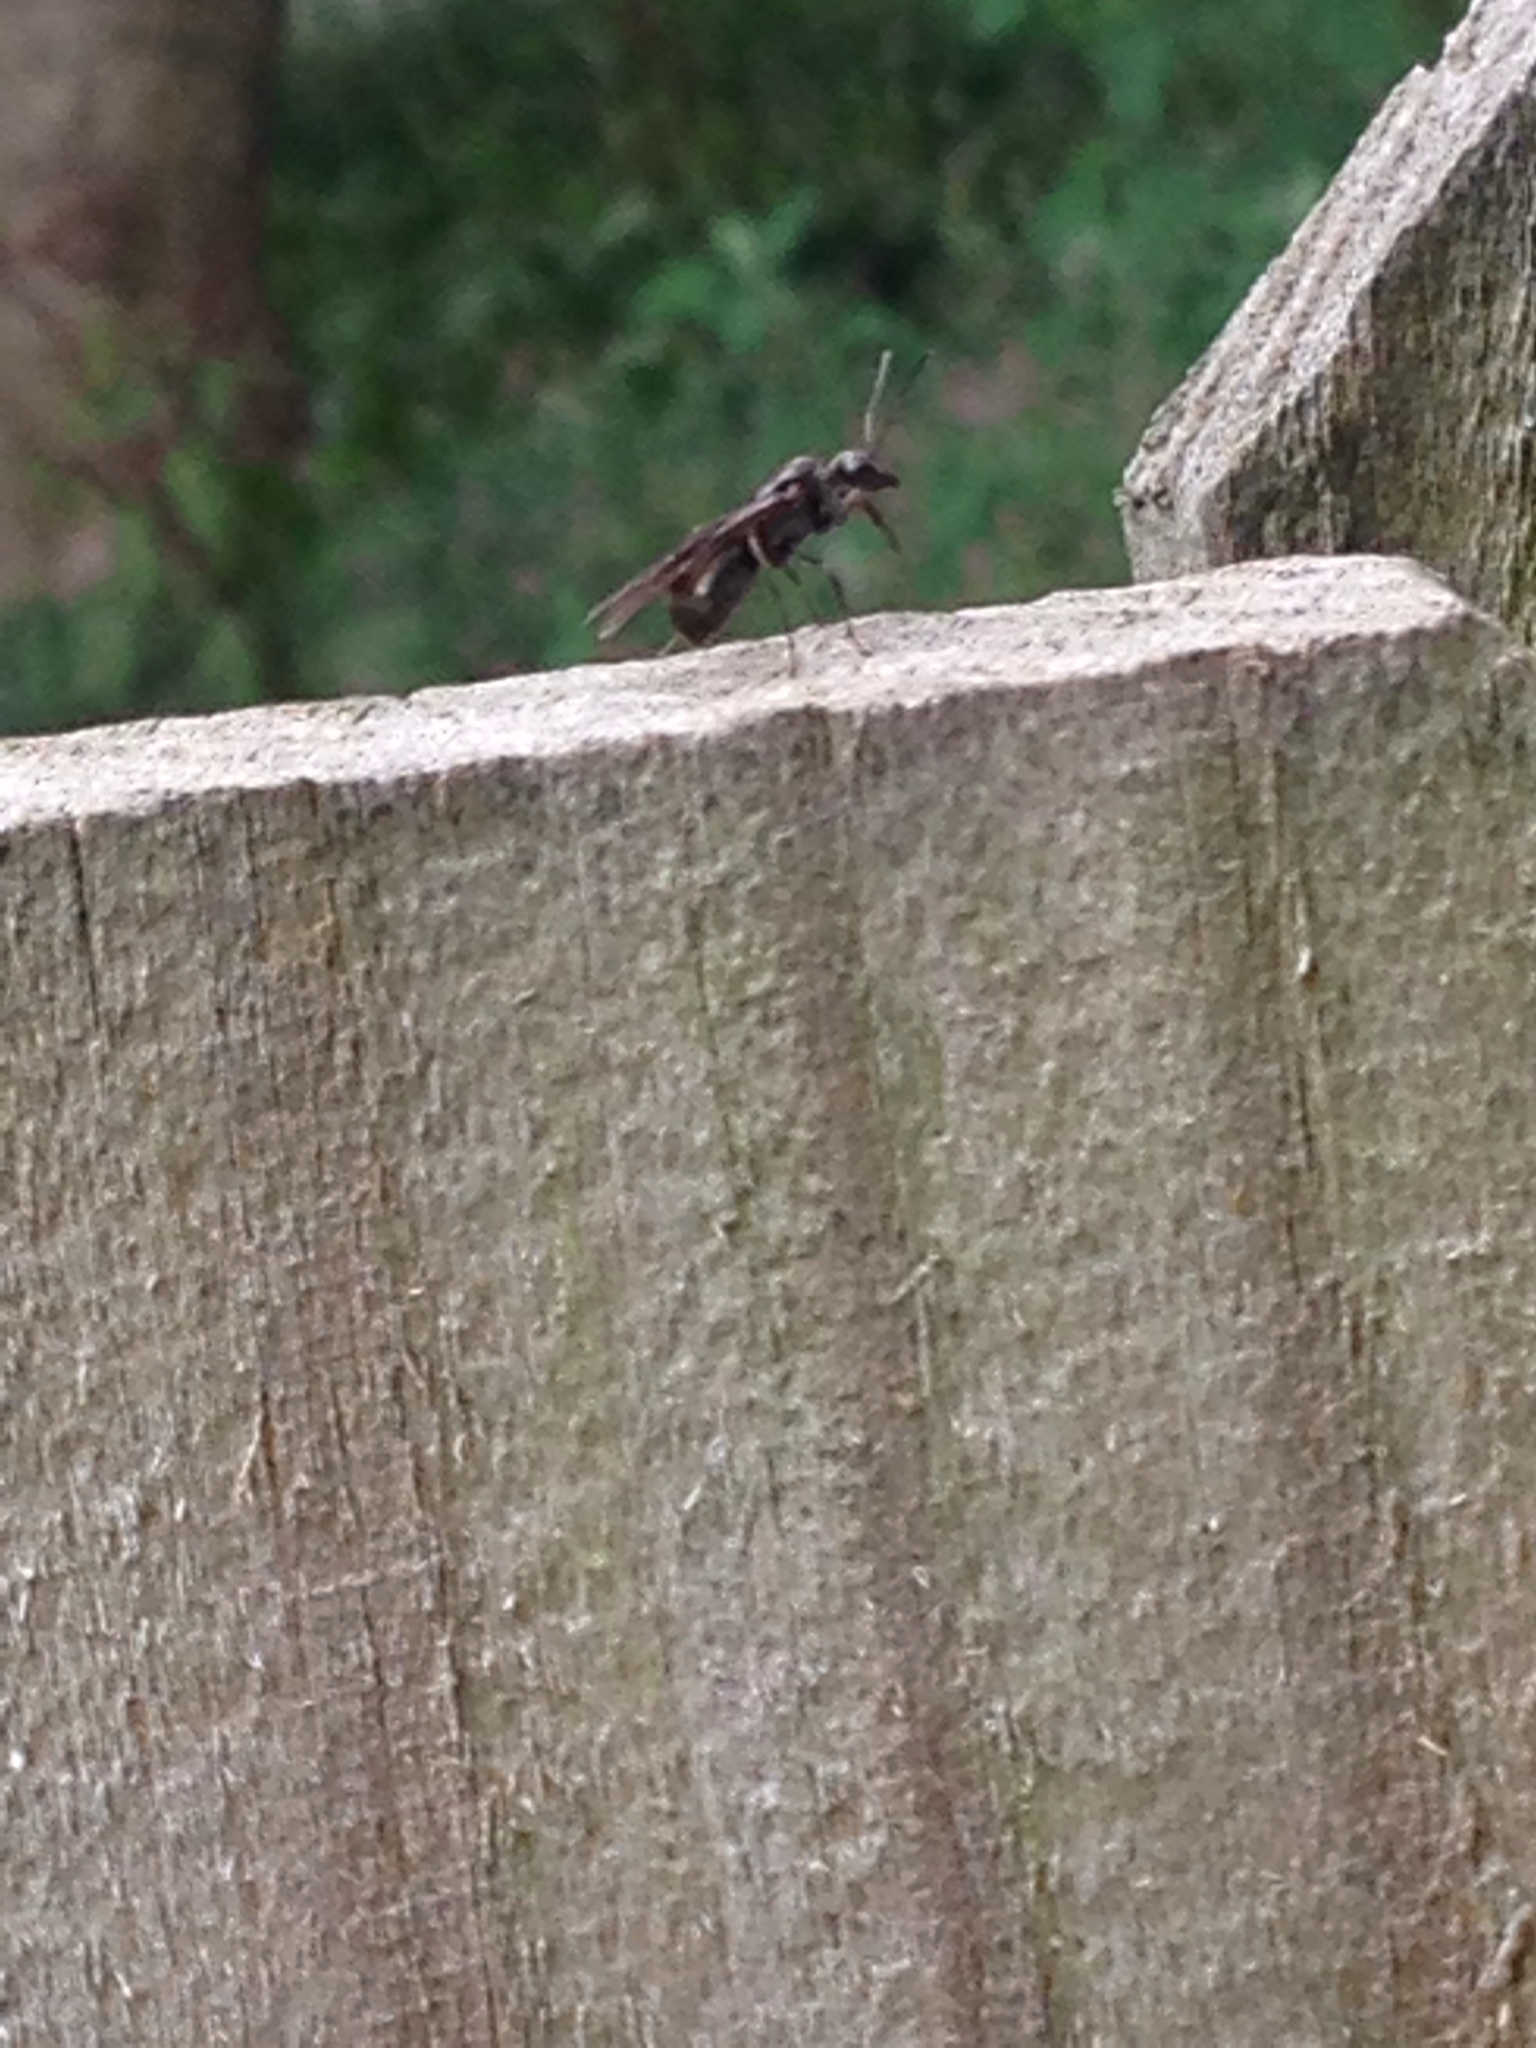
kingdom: Animalia
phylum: Arthropoda
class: Insecta
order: Hymenoptera
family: Formicidae
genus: Camponotus
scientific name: Camponotus pennsylvanicus
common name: Black carpenter ant
